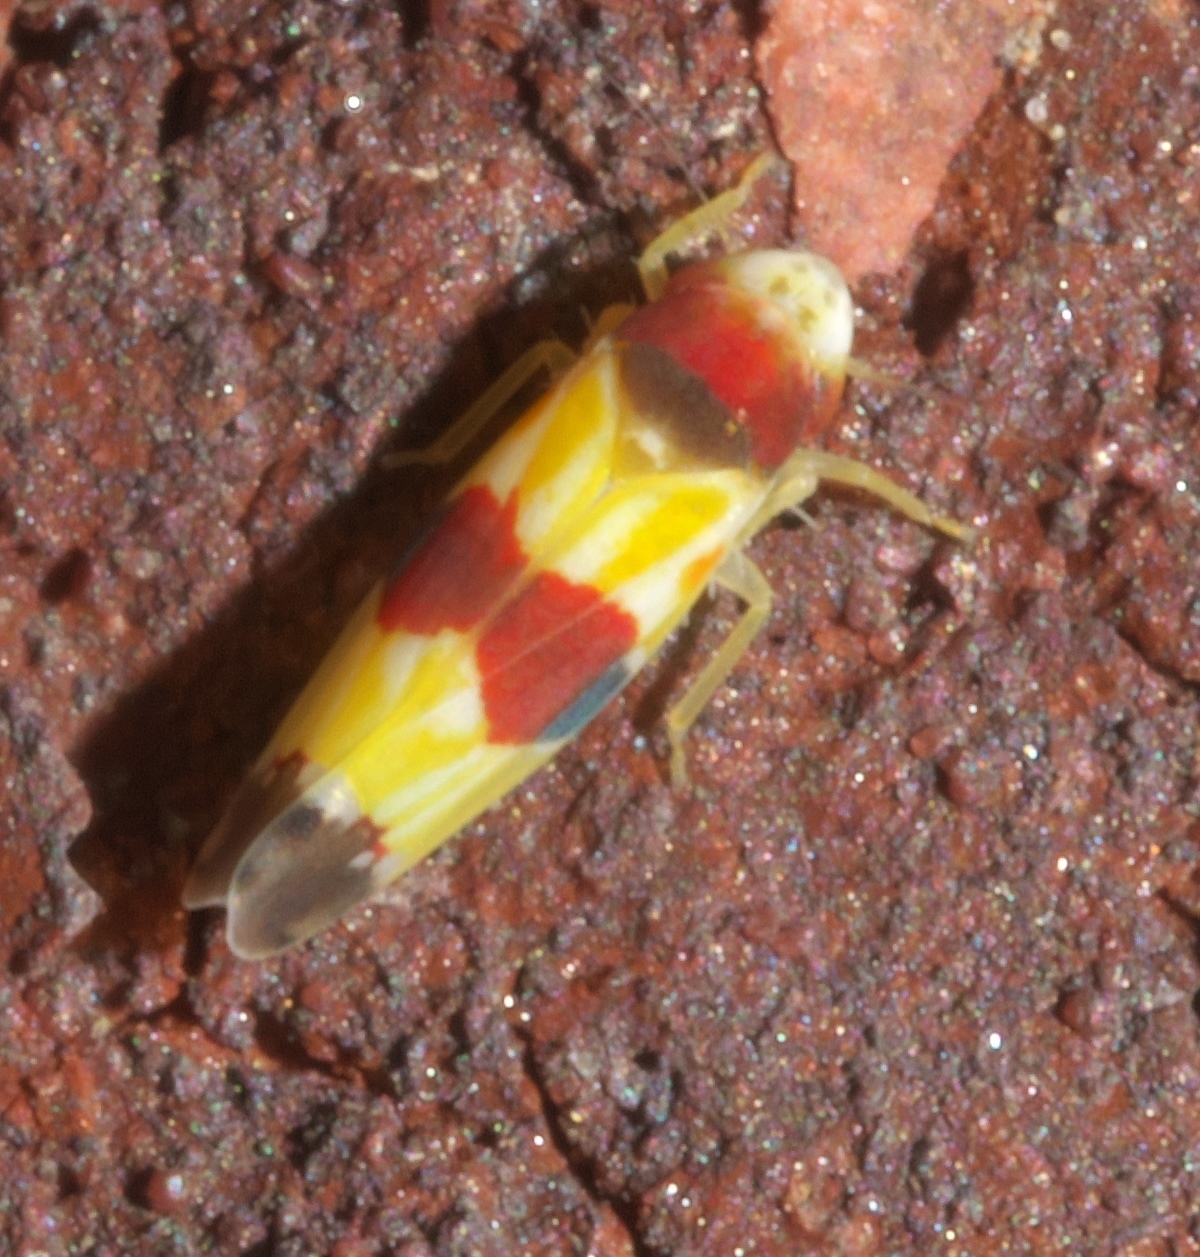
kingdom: Animalia
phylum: Arthropoda
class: Insecta
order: Hemiptera
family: Cicadellidae
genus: Erythroneura
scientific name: Erythroneura diva
